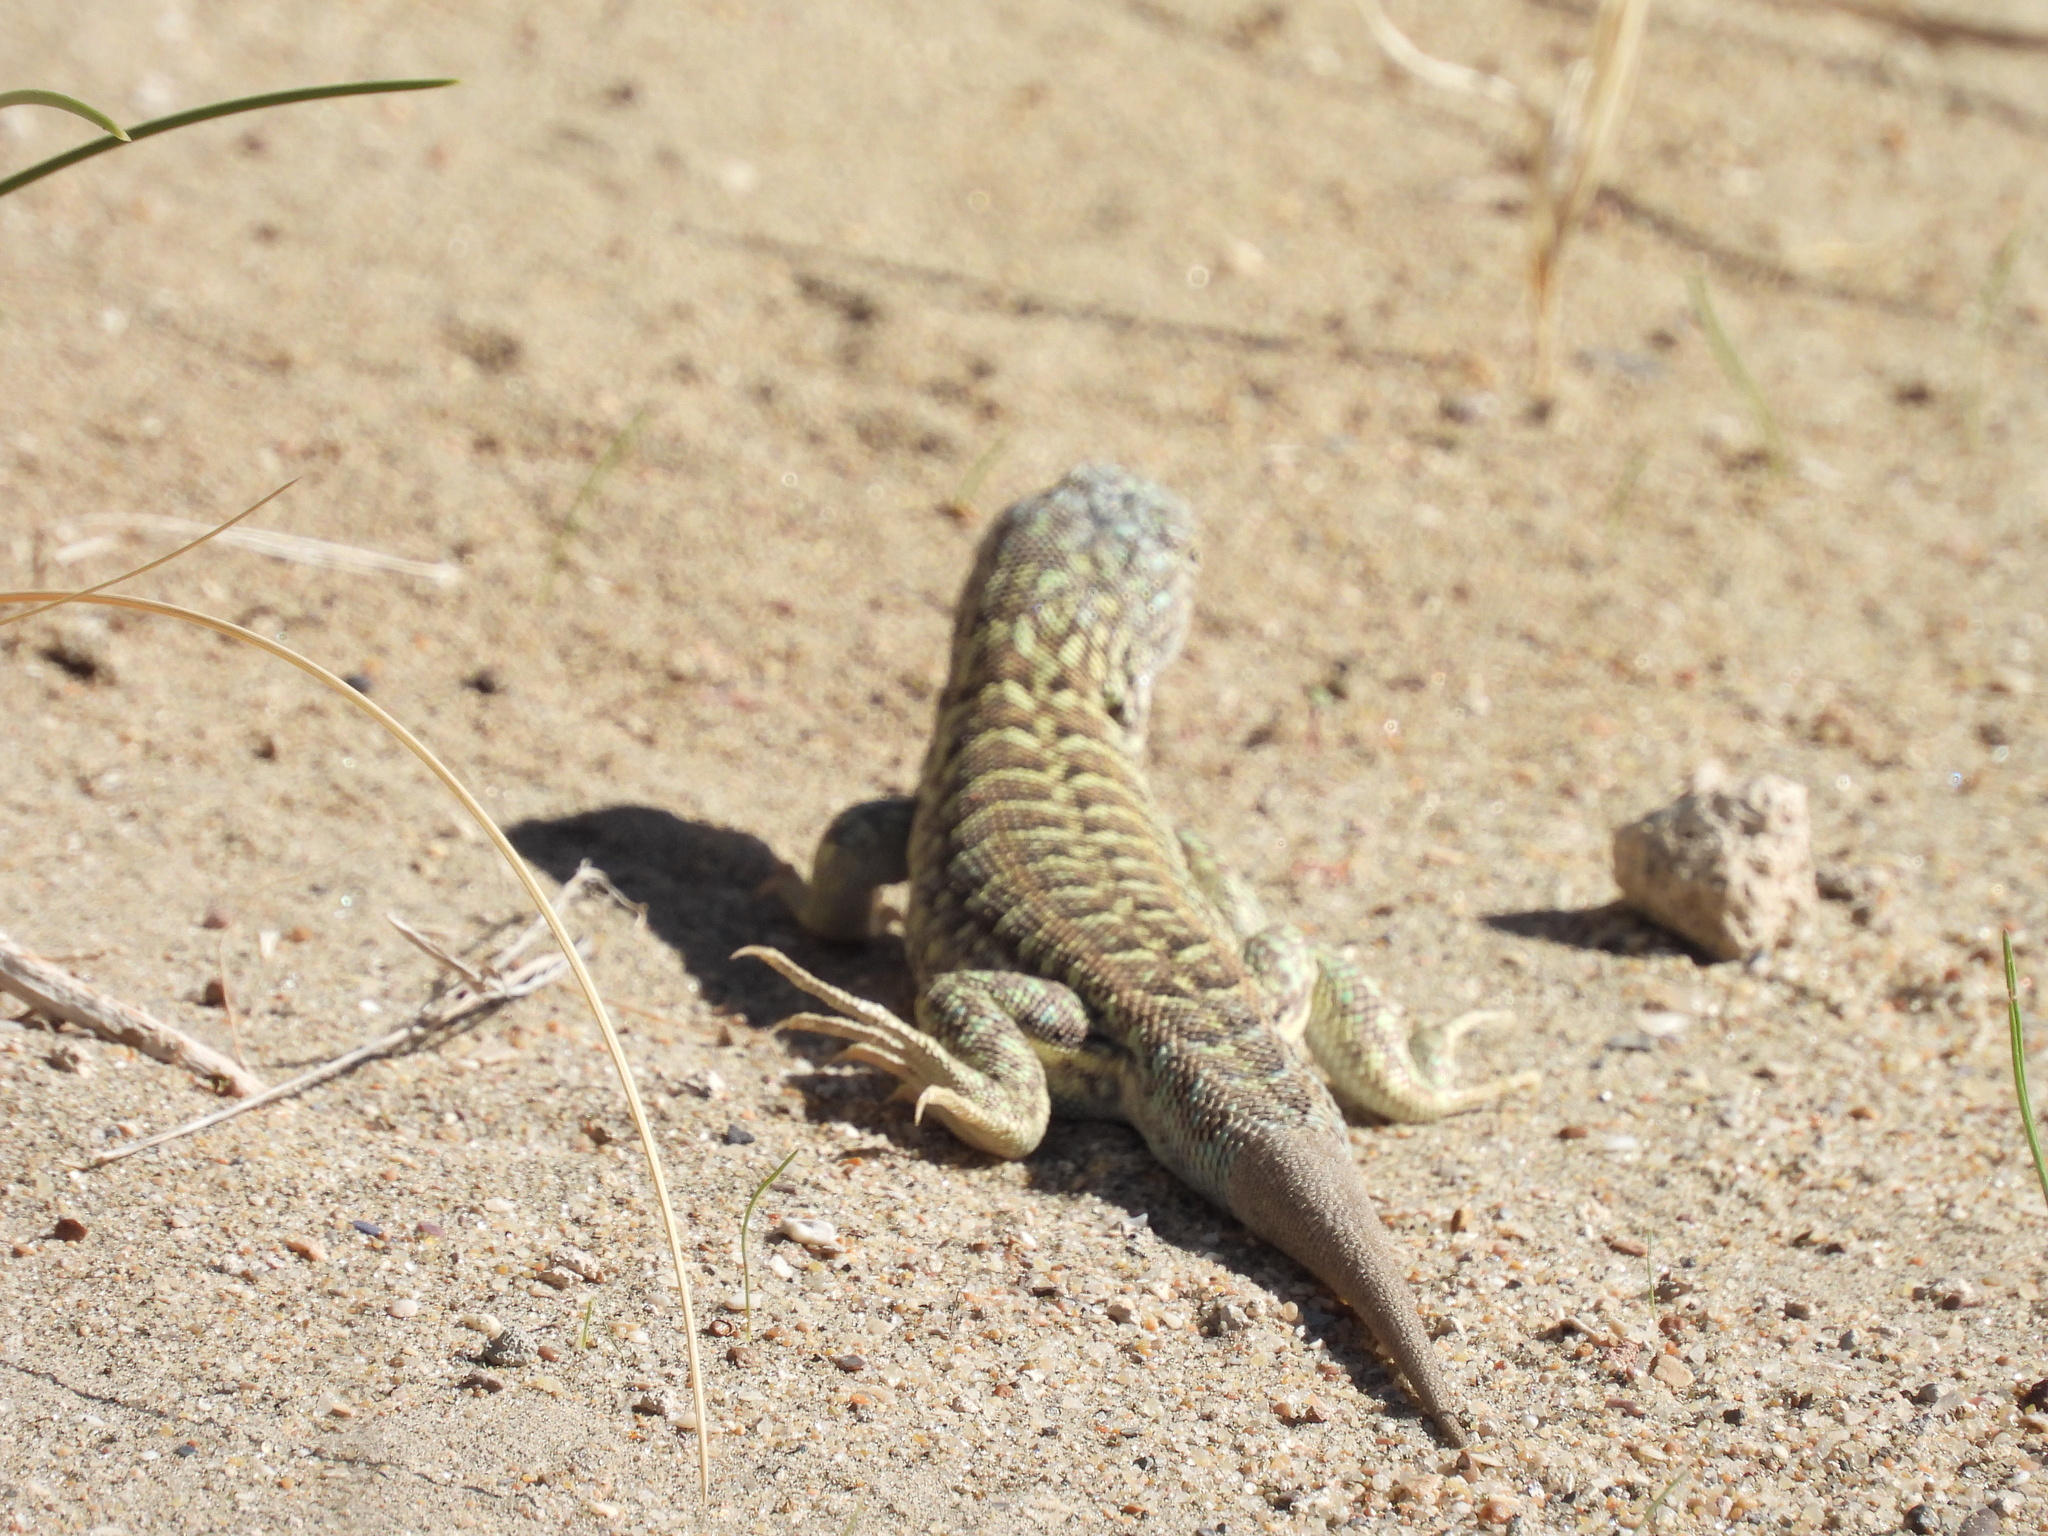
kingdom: Animalia
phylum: Chordata
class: Squamata
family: Liolaemidae
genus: Liolaemus
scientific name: Liolaemus melanops
